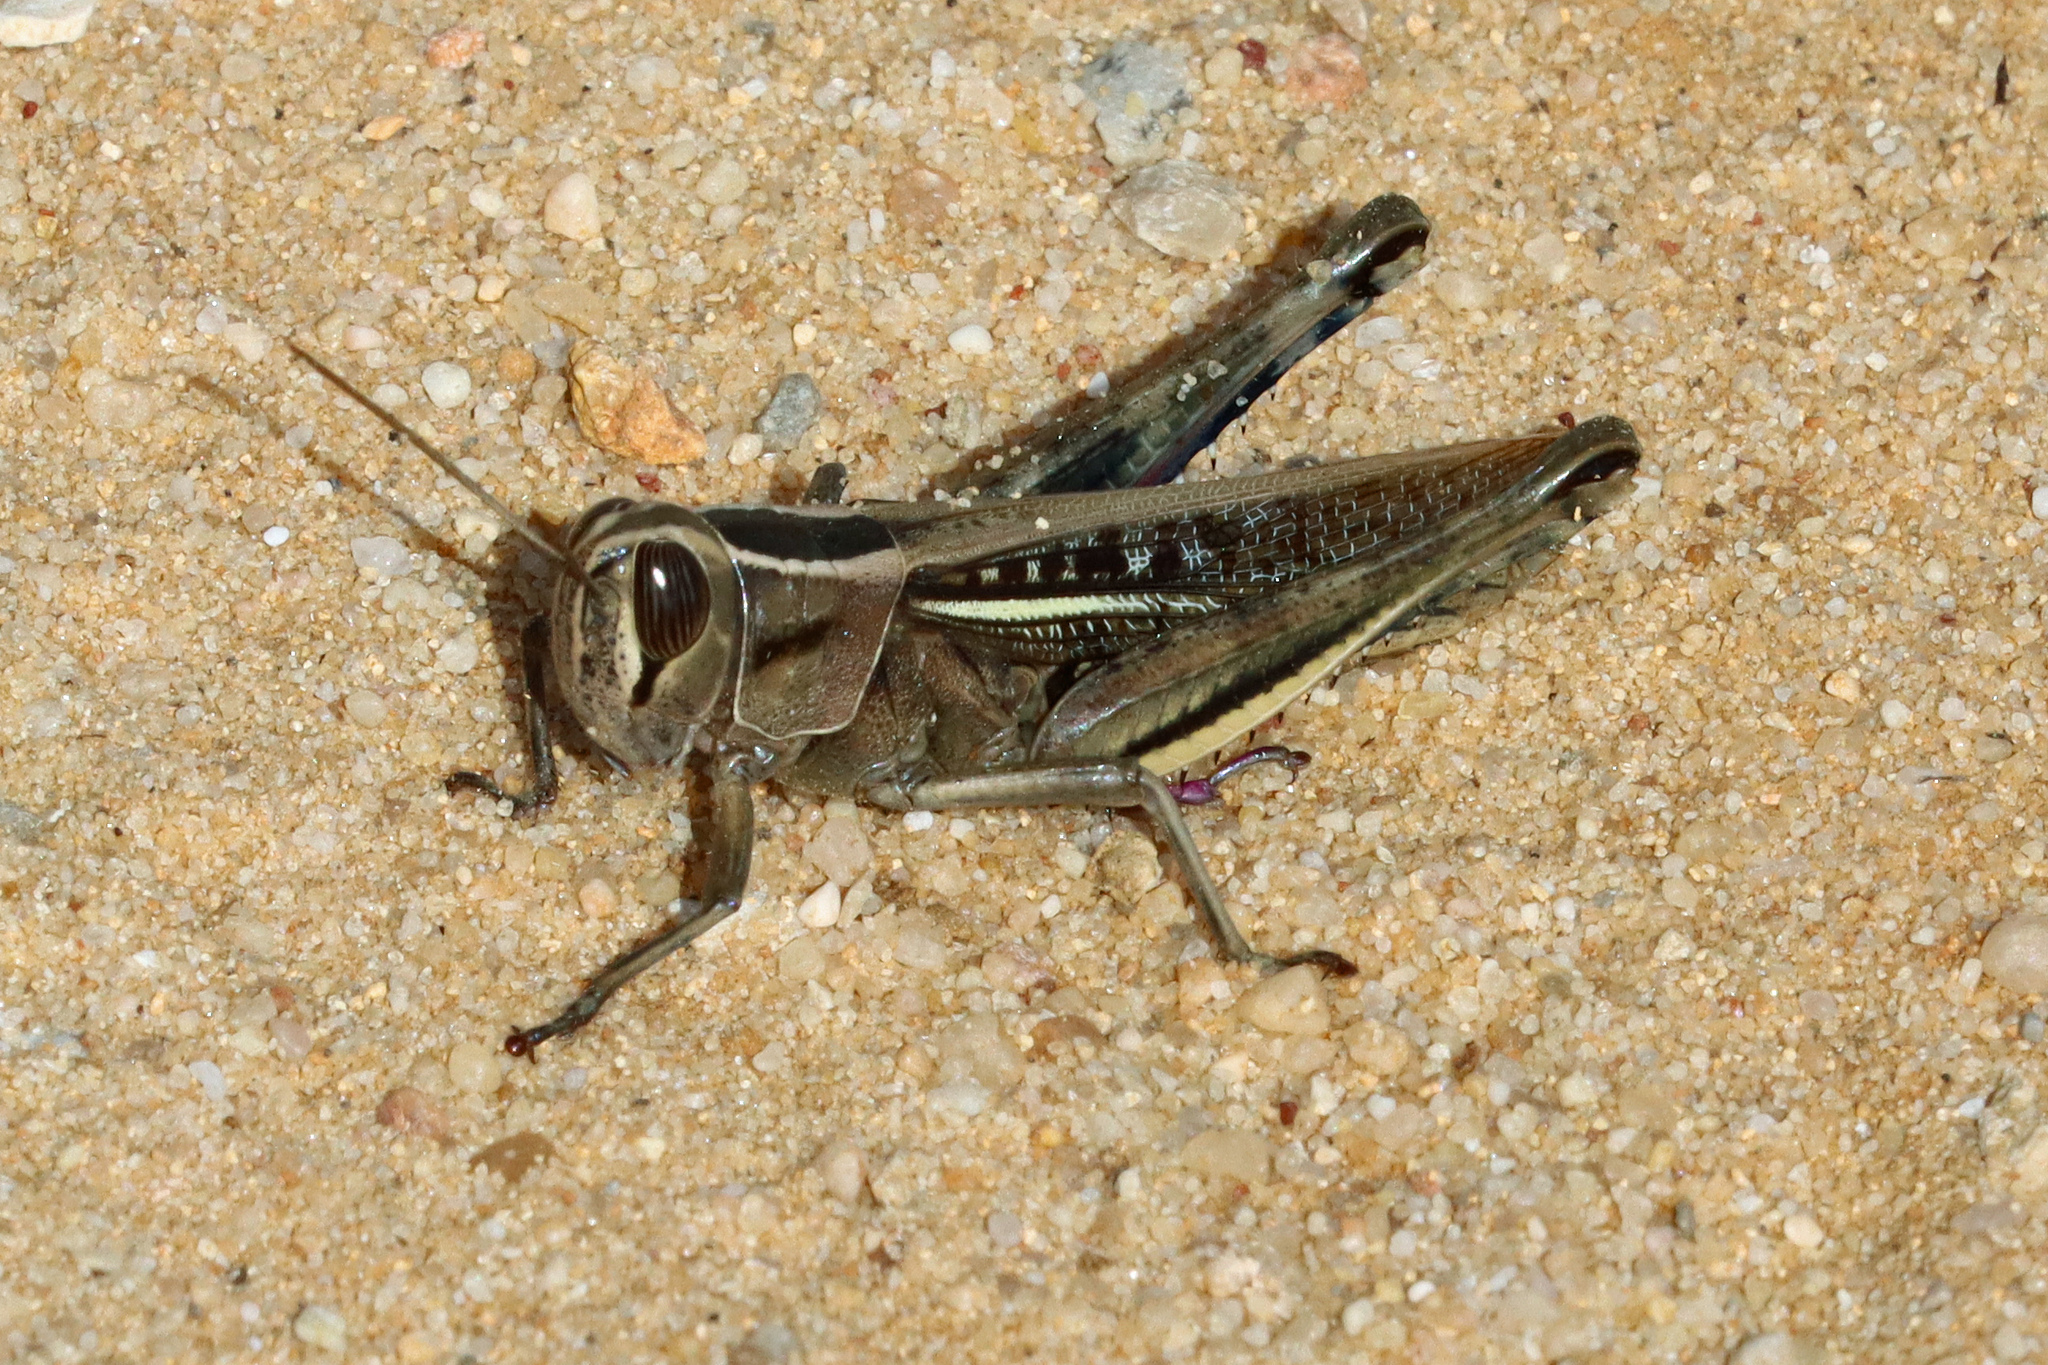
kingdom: Animalia
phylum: Arthropoda
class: Insecta
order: Orthoptera
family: Acrididae
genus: Eyprepocnemis
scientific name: Eyprepocnemis plorans
